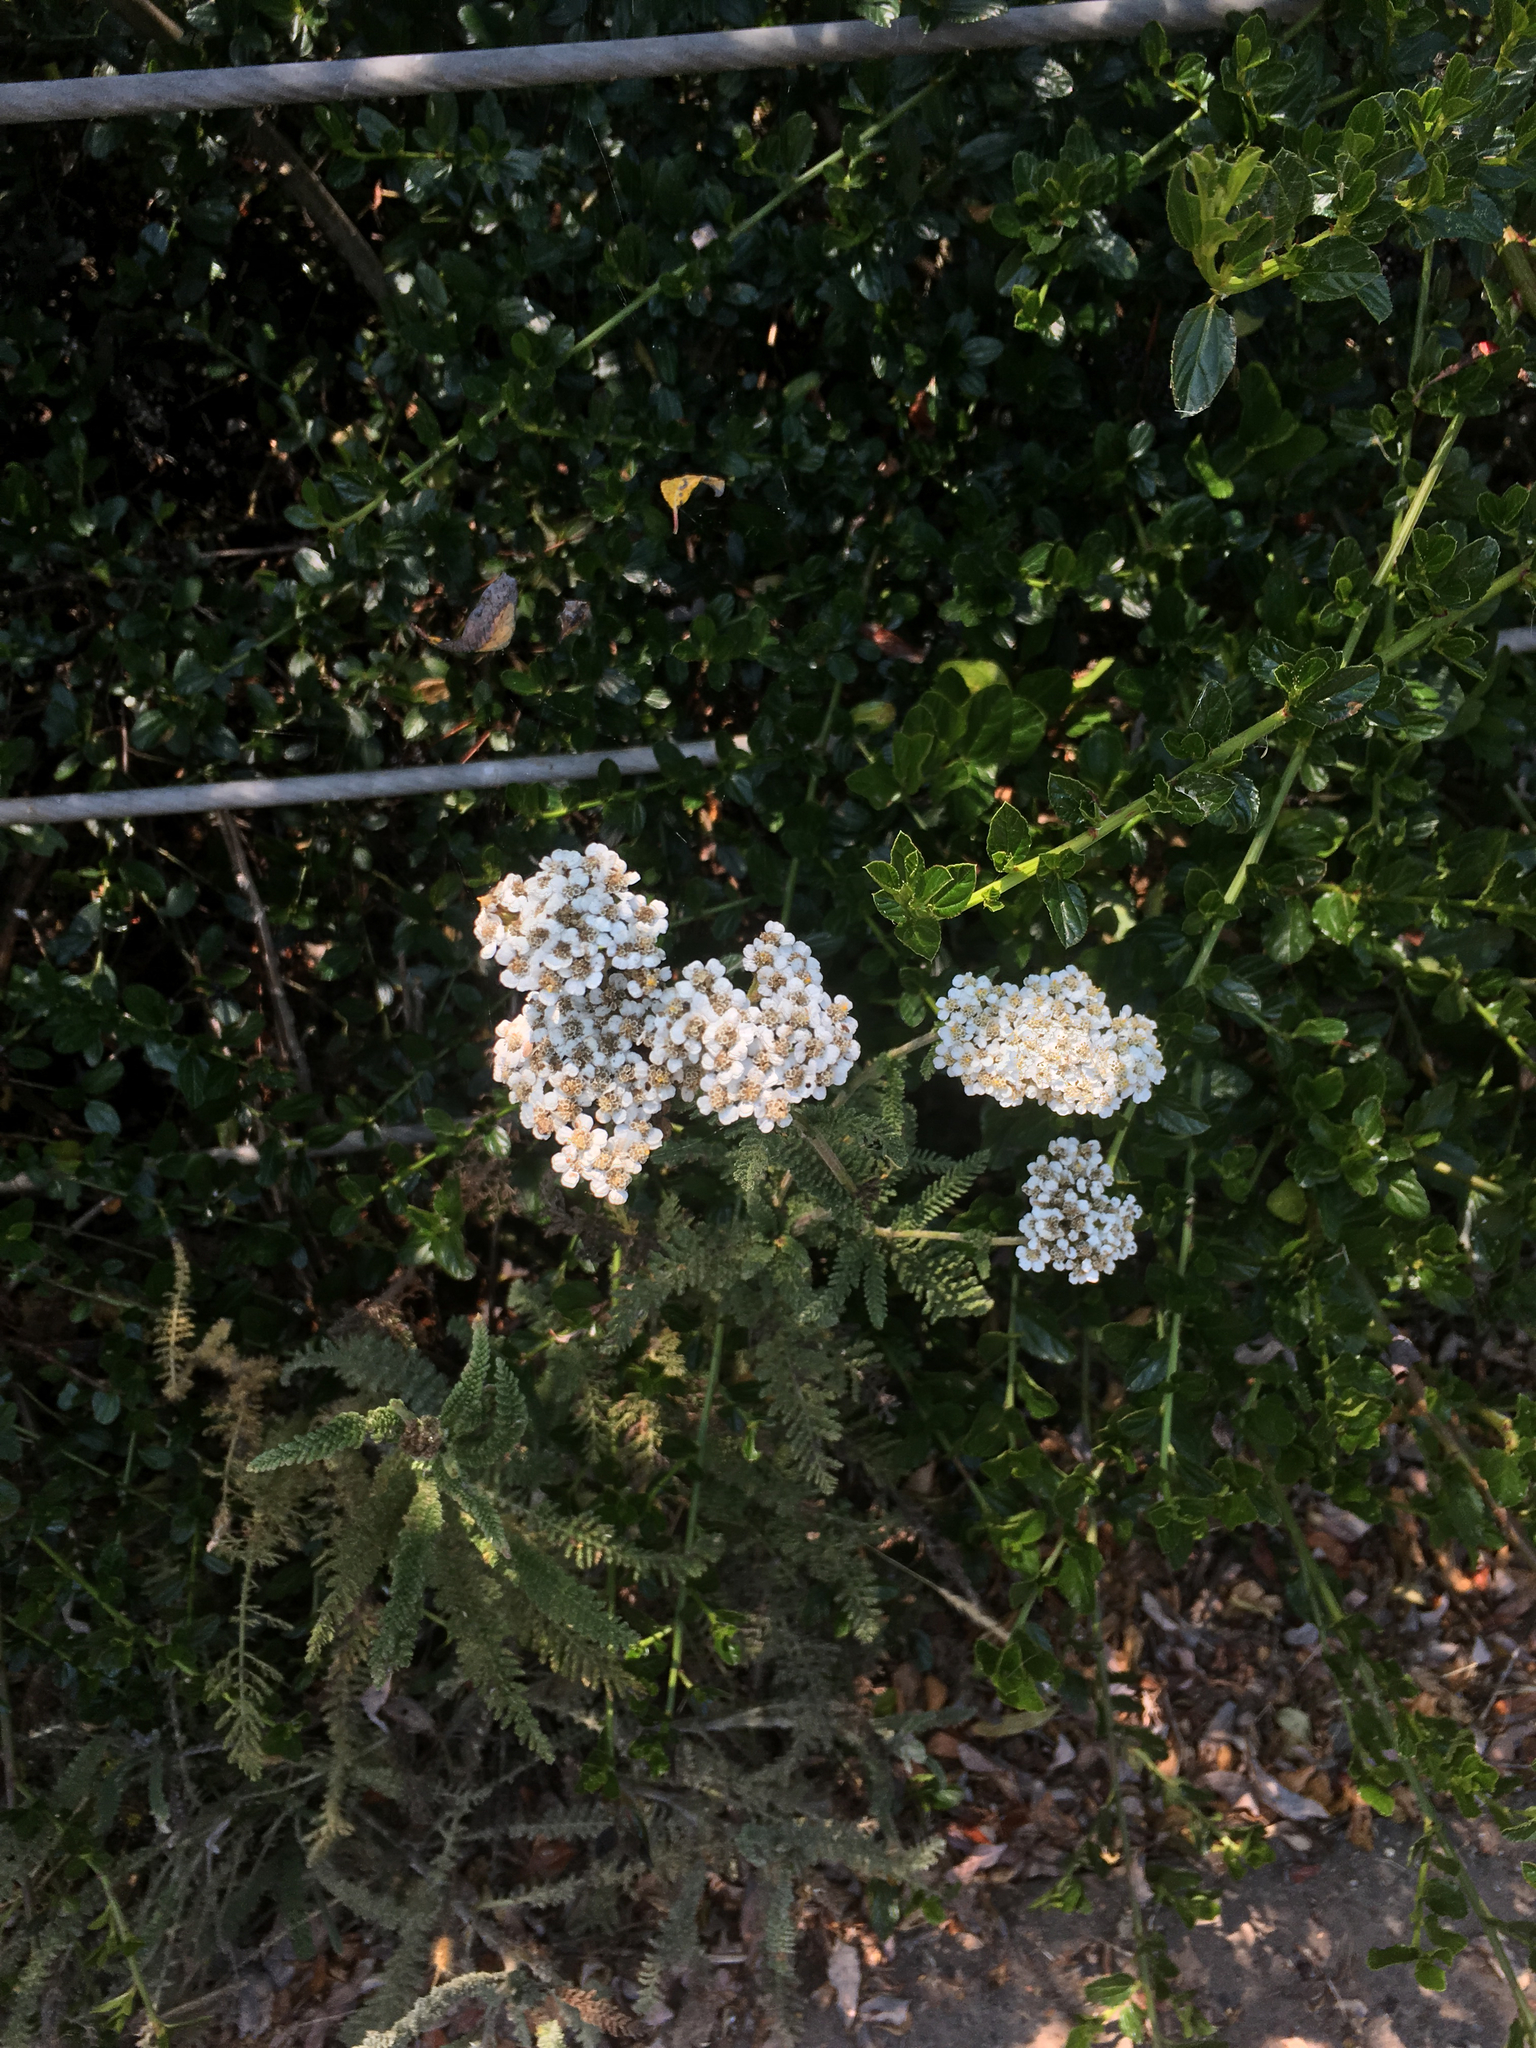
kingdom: Plantae
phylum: Tracheophyta
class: Magnoliopsida
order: Asterales
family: Asteraceae
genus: Achillea
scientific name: Achillea millefolium
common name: Yarrow
